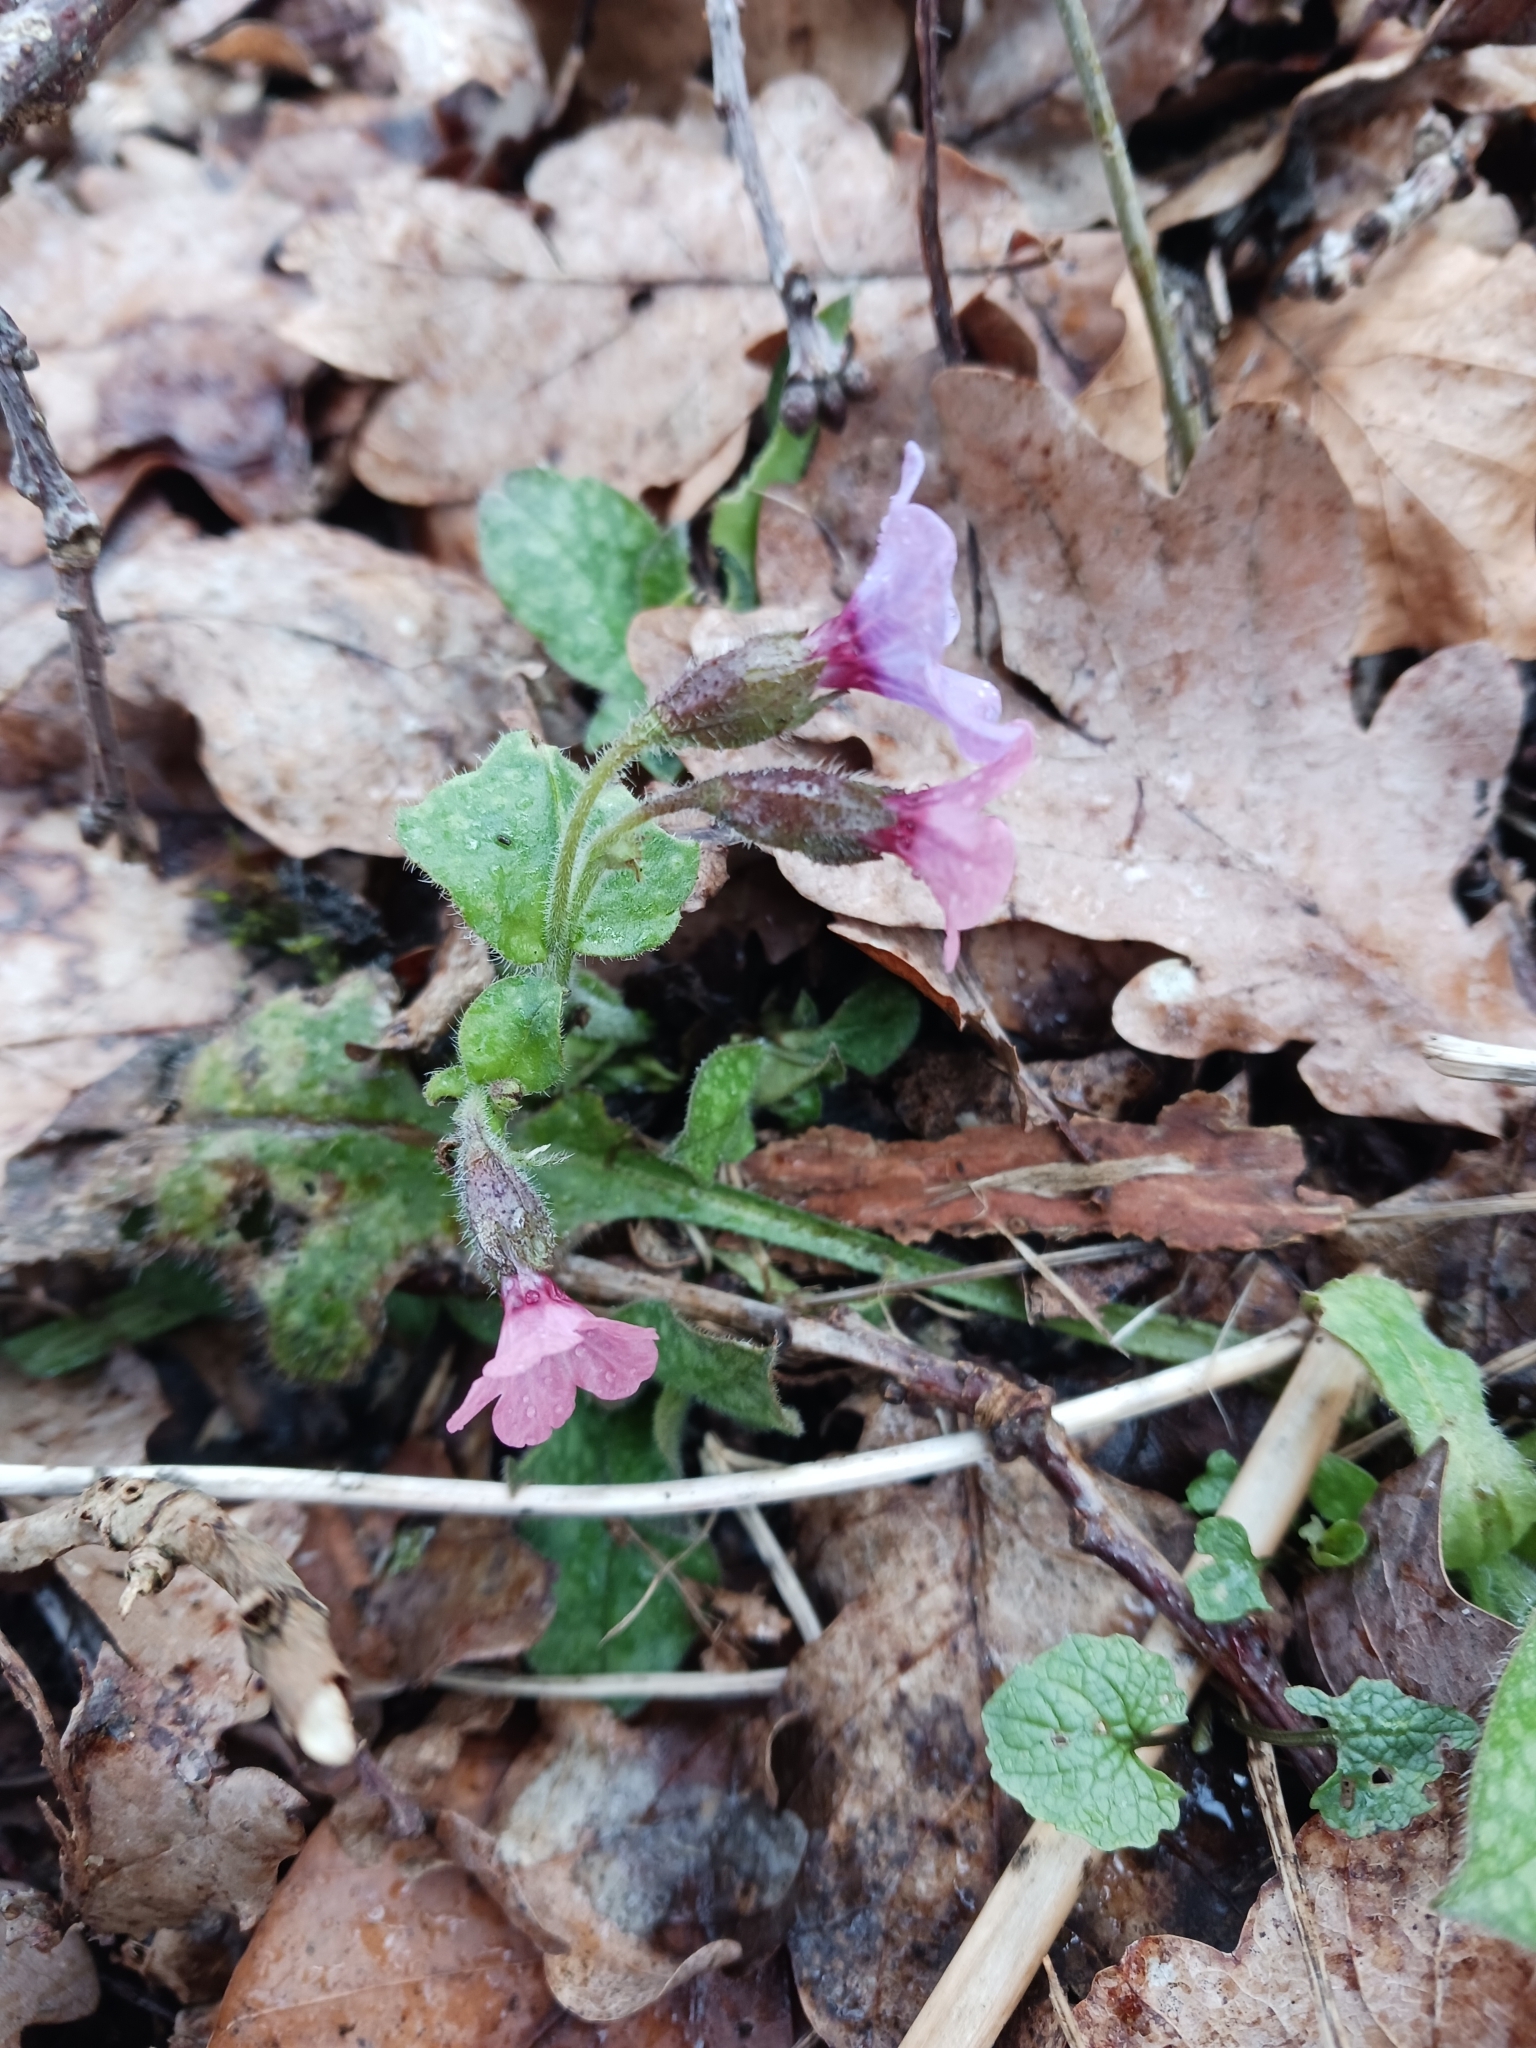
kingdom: Plantae
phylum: Tracheophyta
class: Magnoliopsida
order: Boraginales
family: Boraginaceae
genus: Pulmonaria
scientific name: Pulmonaria officinalis
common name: Lungwort
